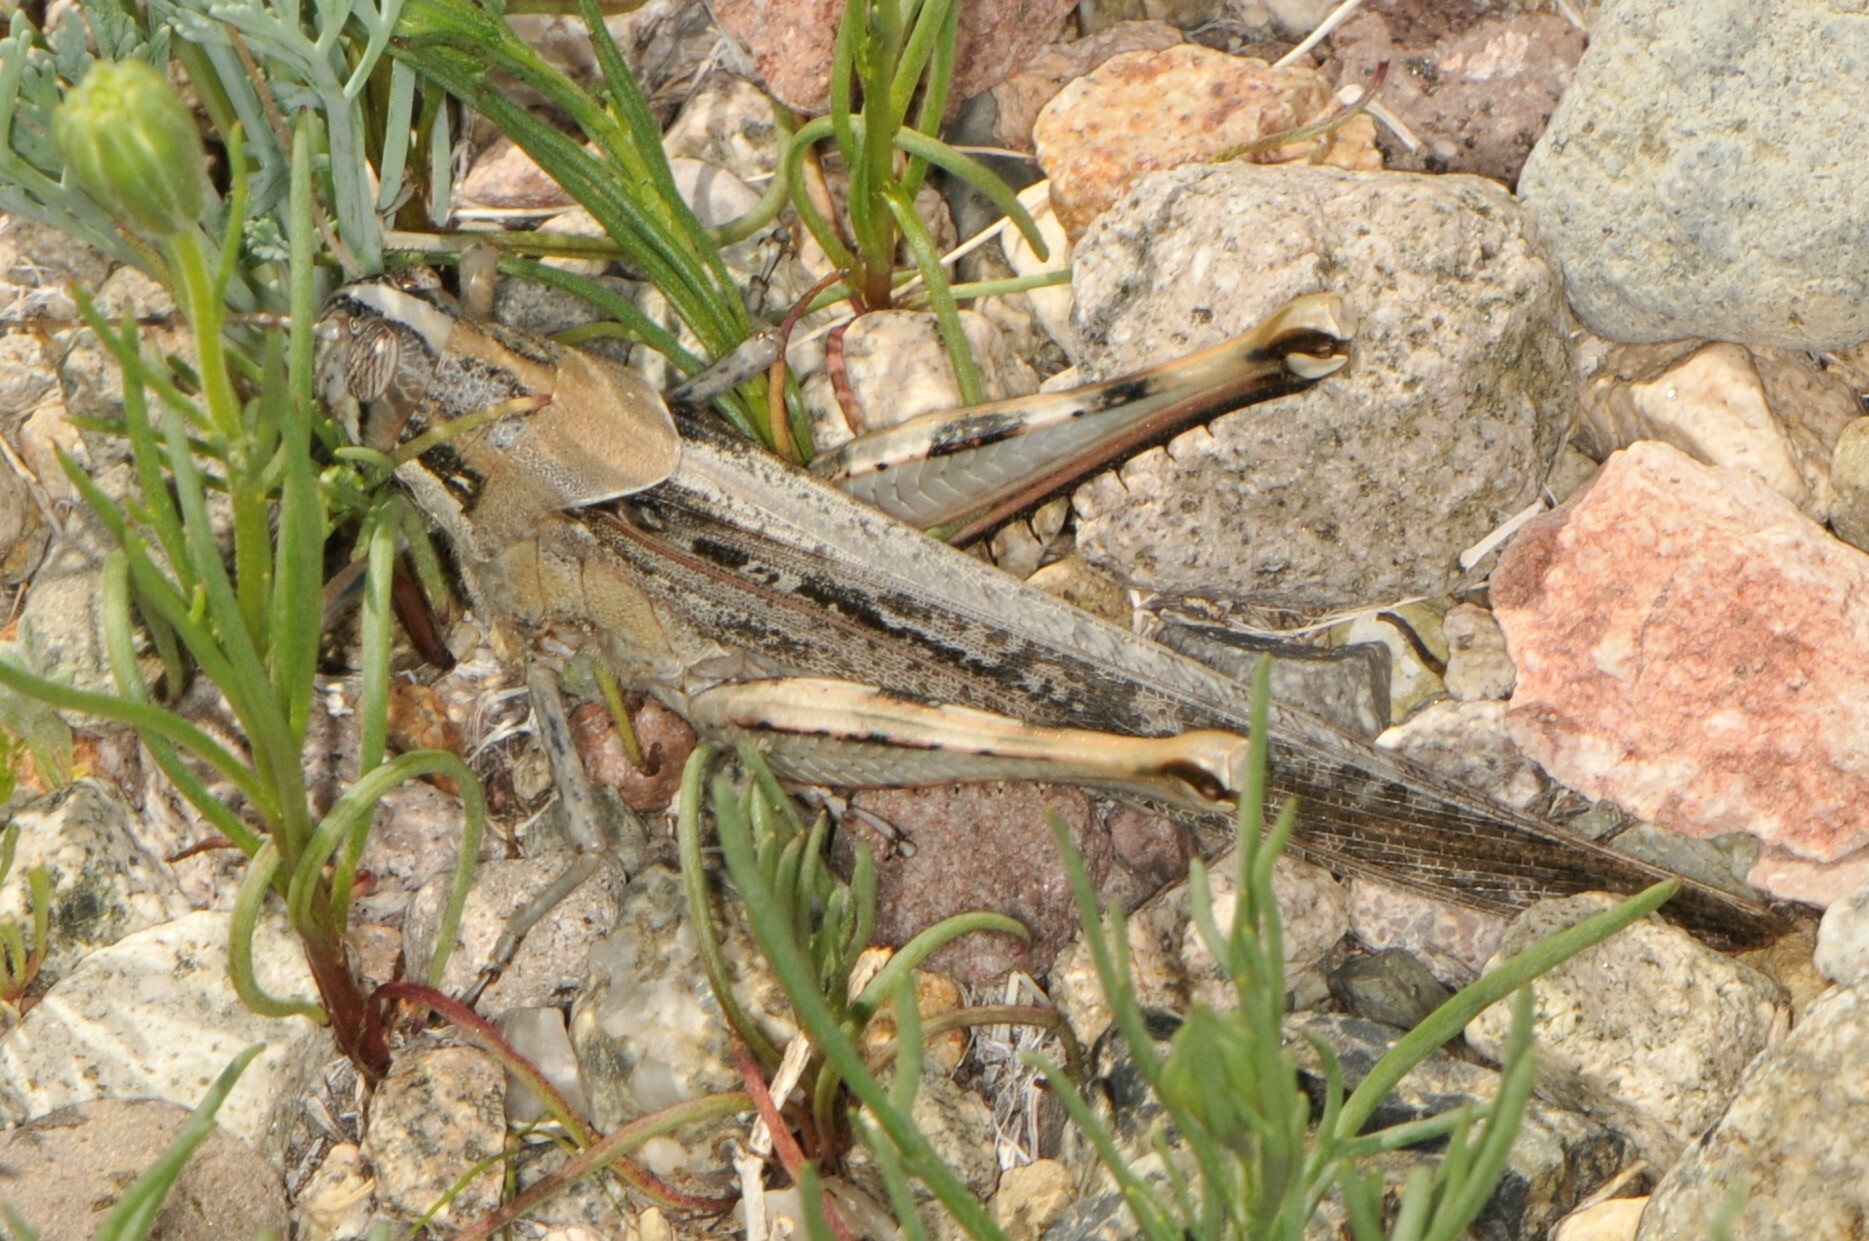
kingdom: Animalia
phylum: Arthropoda
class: Insecta
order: Orthoptera
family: Acrididae
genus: Schistocerca
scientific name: Schistocerca nitens
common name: Vagrant grasshopper
